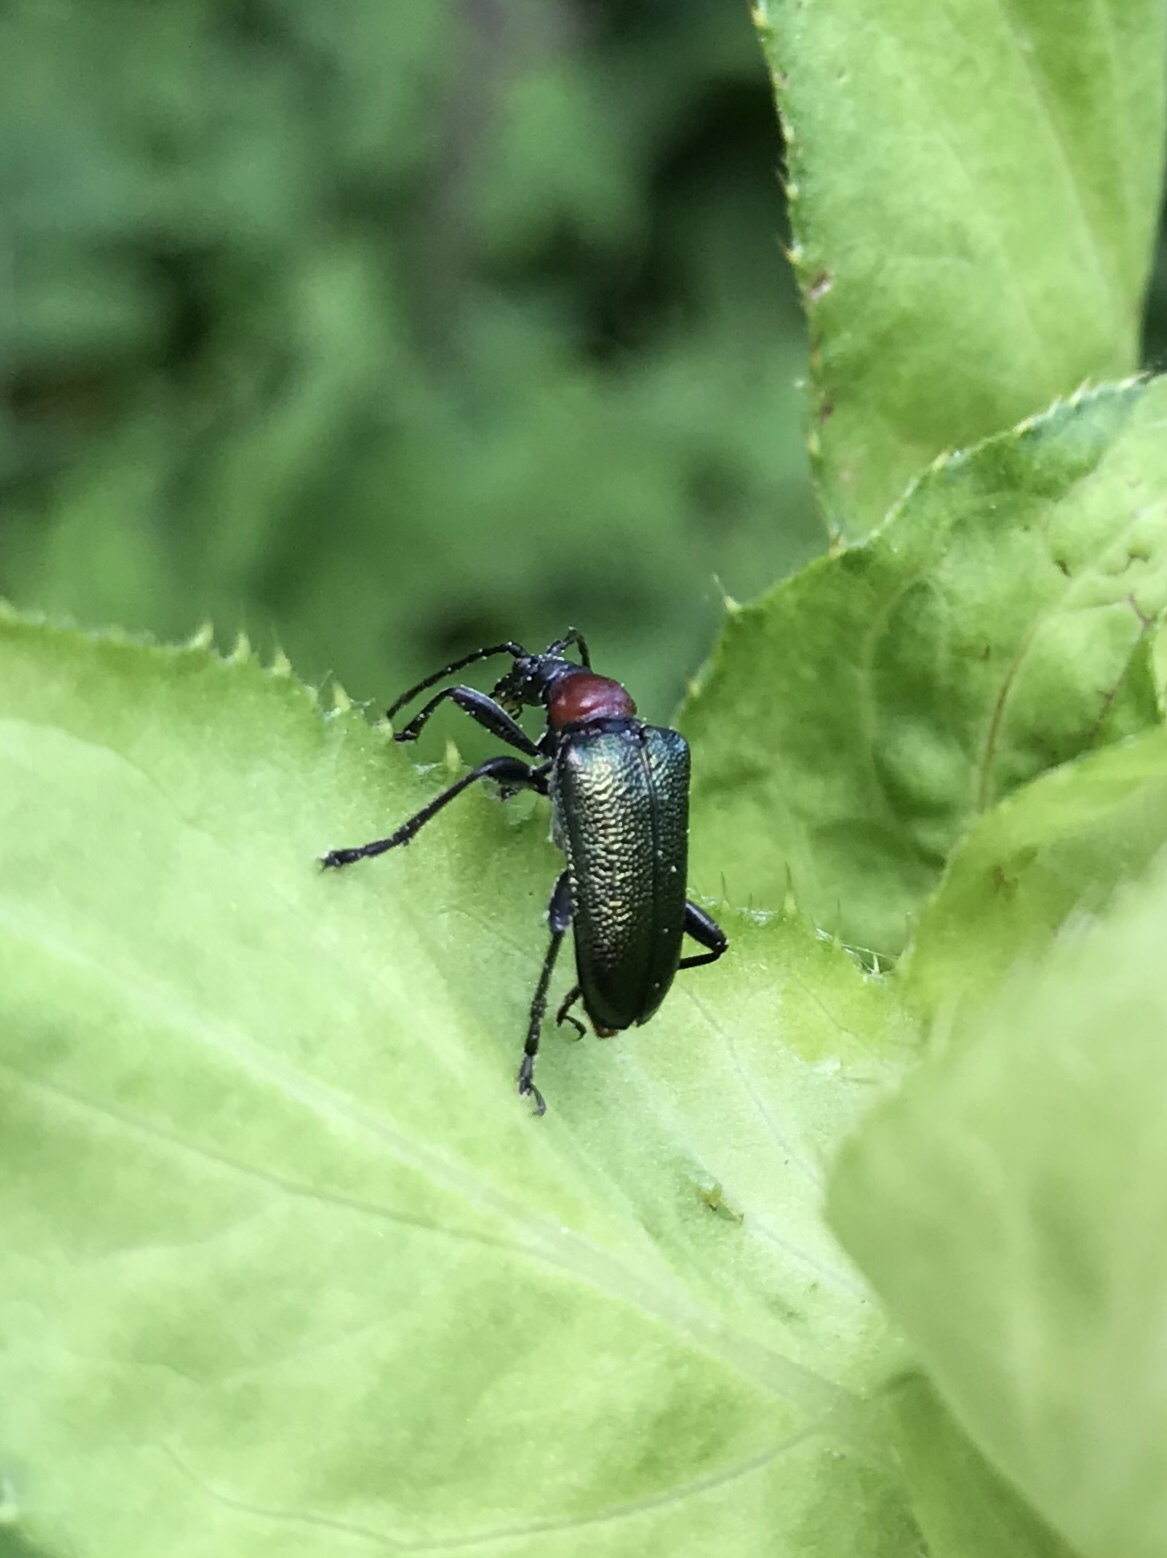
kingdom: Animalia
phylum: Arthropoda
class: Insecta
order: Coleoptera
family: Cerambycidae
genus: Gaurotes
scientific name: Gaurotes virginea
